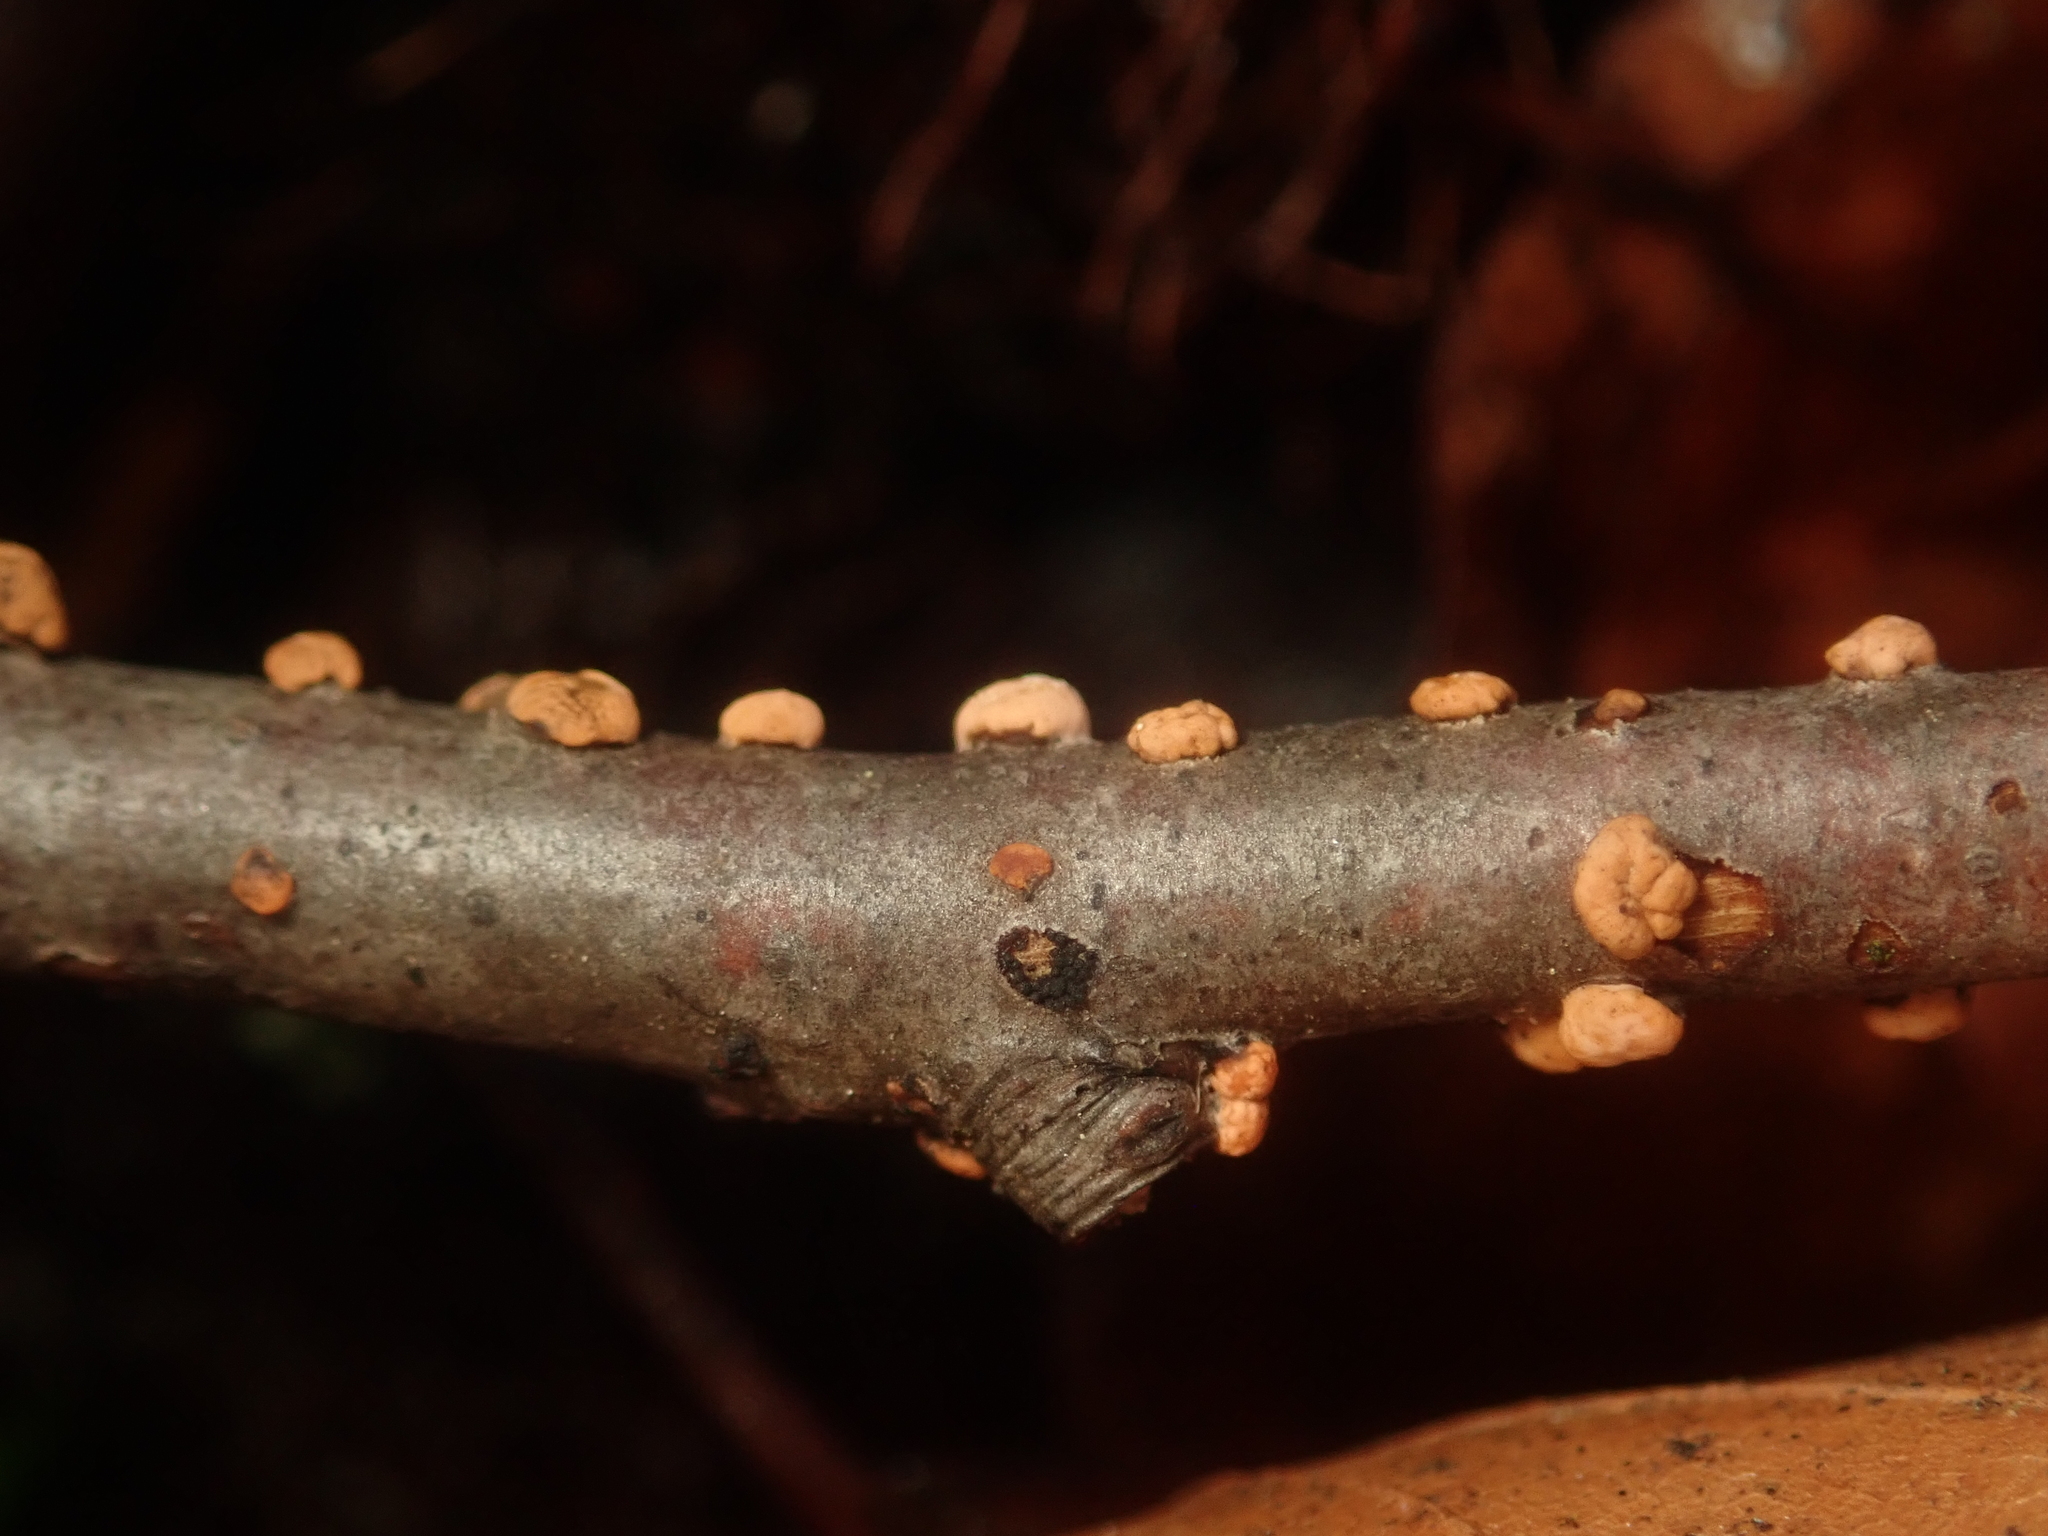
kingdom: Fungi
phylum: Ascomycota
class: Sordariomycetes
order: Hypocreales
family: Nectriaceae
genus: Nectria
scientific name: Nectria cinnabarina
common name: Coral spot
